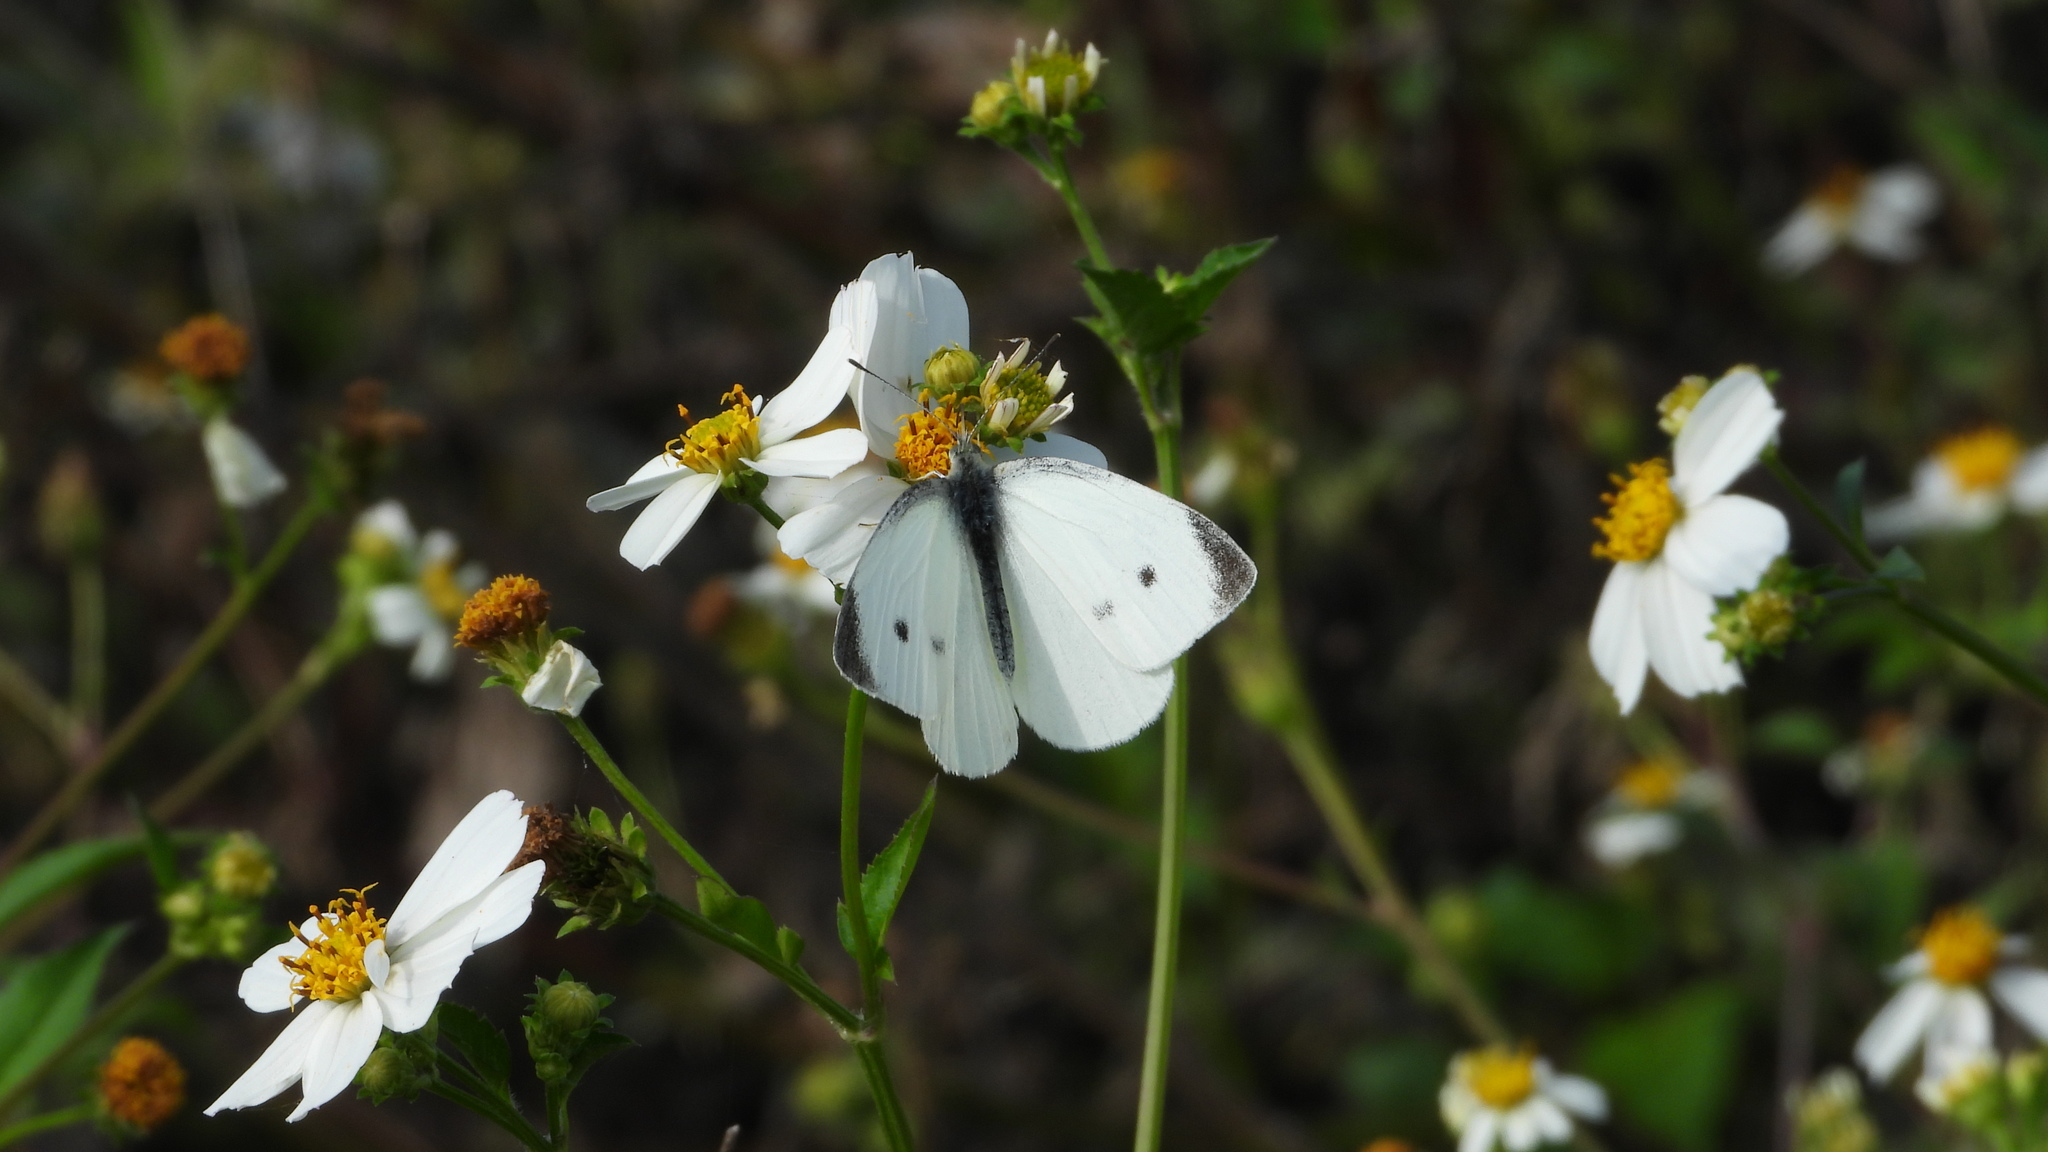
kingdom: Animalia
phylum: Arthropoda
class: Insecta
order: Lepidoptera
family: Pieridae
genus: Pieris
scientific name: Pieris rapae
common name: Small white
